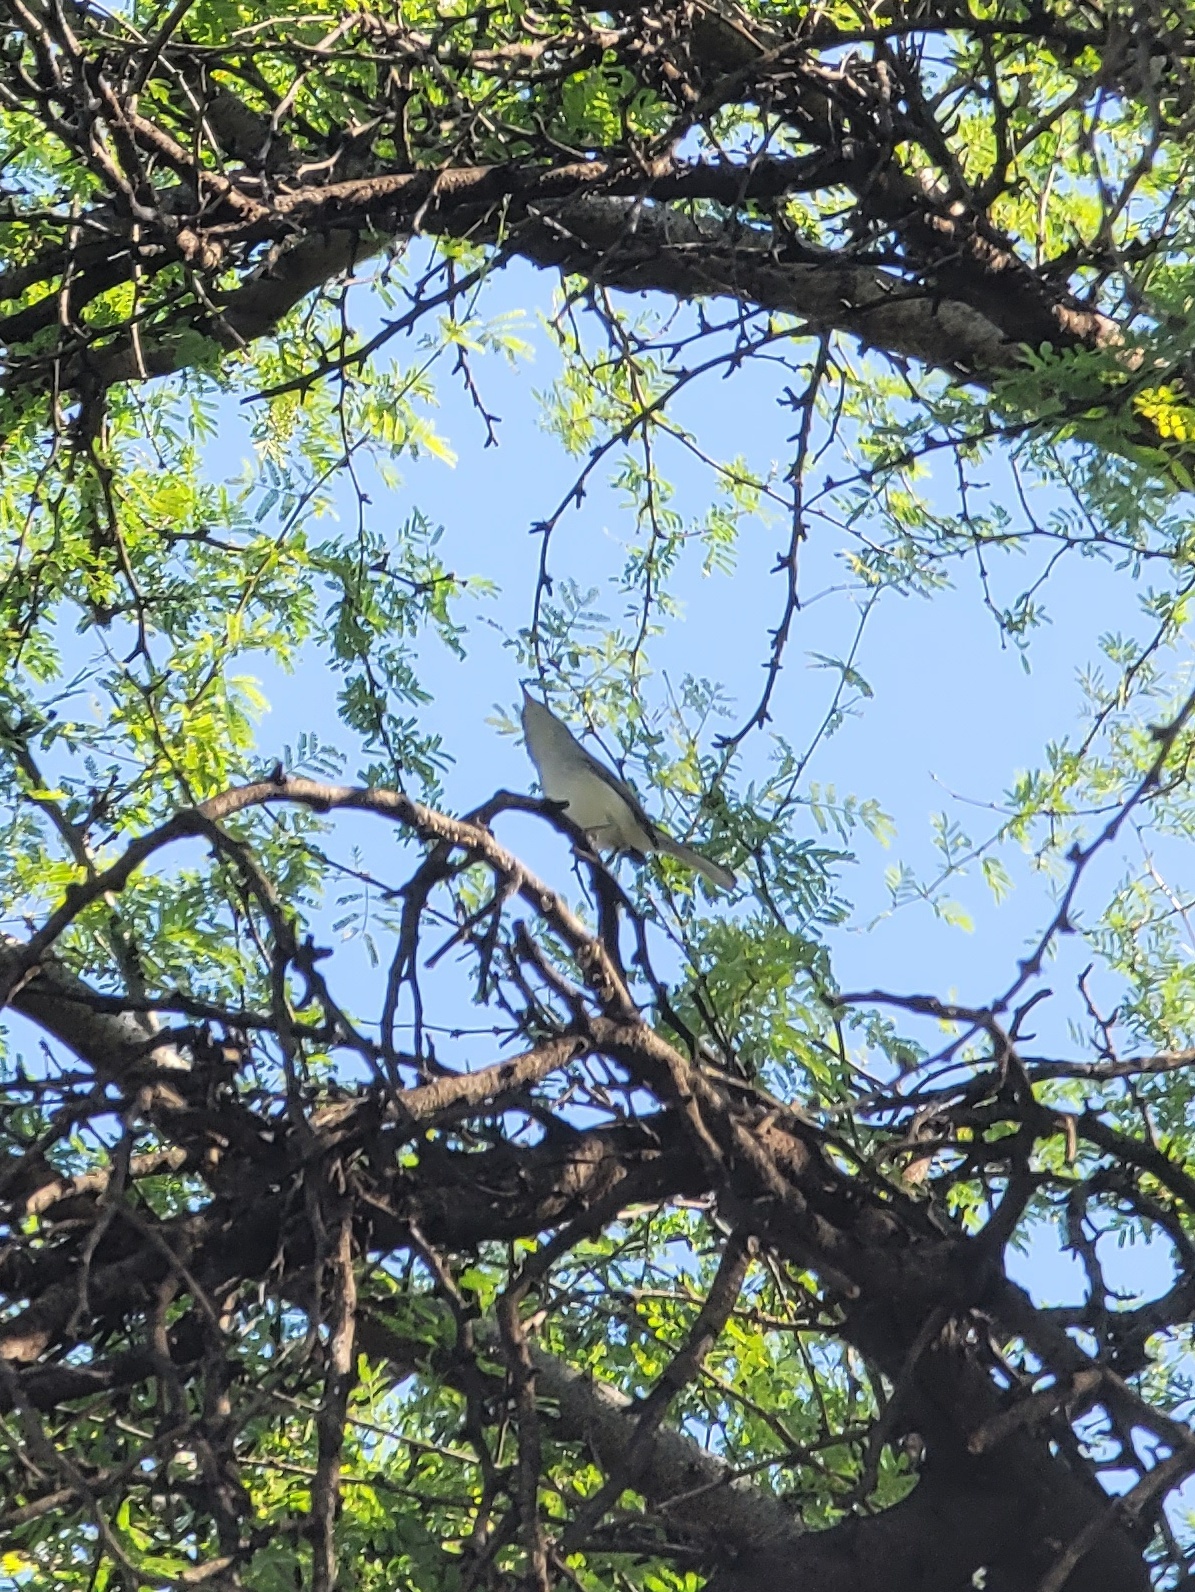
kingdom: Animalia
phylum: Chordata
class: Aves
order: Passeriformes
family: Polioptilidae
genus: Polioptila
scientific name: Polioptila caerulea
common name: Blue-gray gnatcatcher
